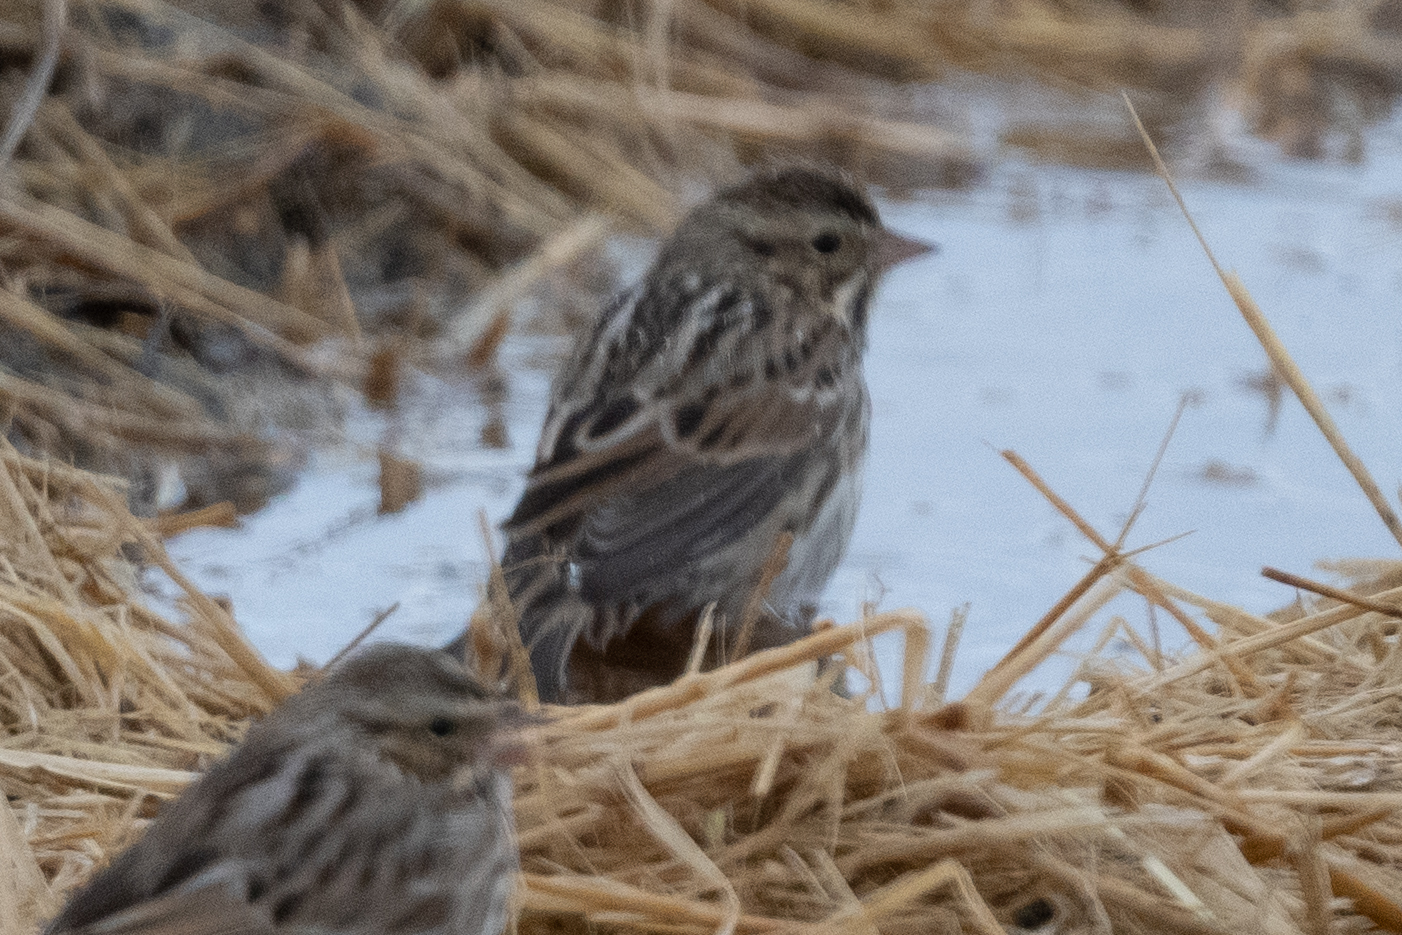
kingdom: Animalia
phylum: Chordata
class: Aves
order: Passeriformes
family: Passerellidae
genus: Passerculus
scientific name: Passerculus sandwichensis
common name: Savannah sparrow
